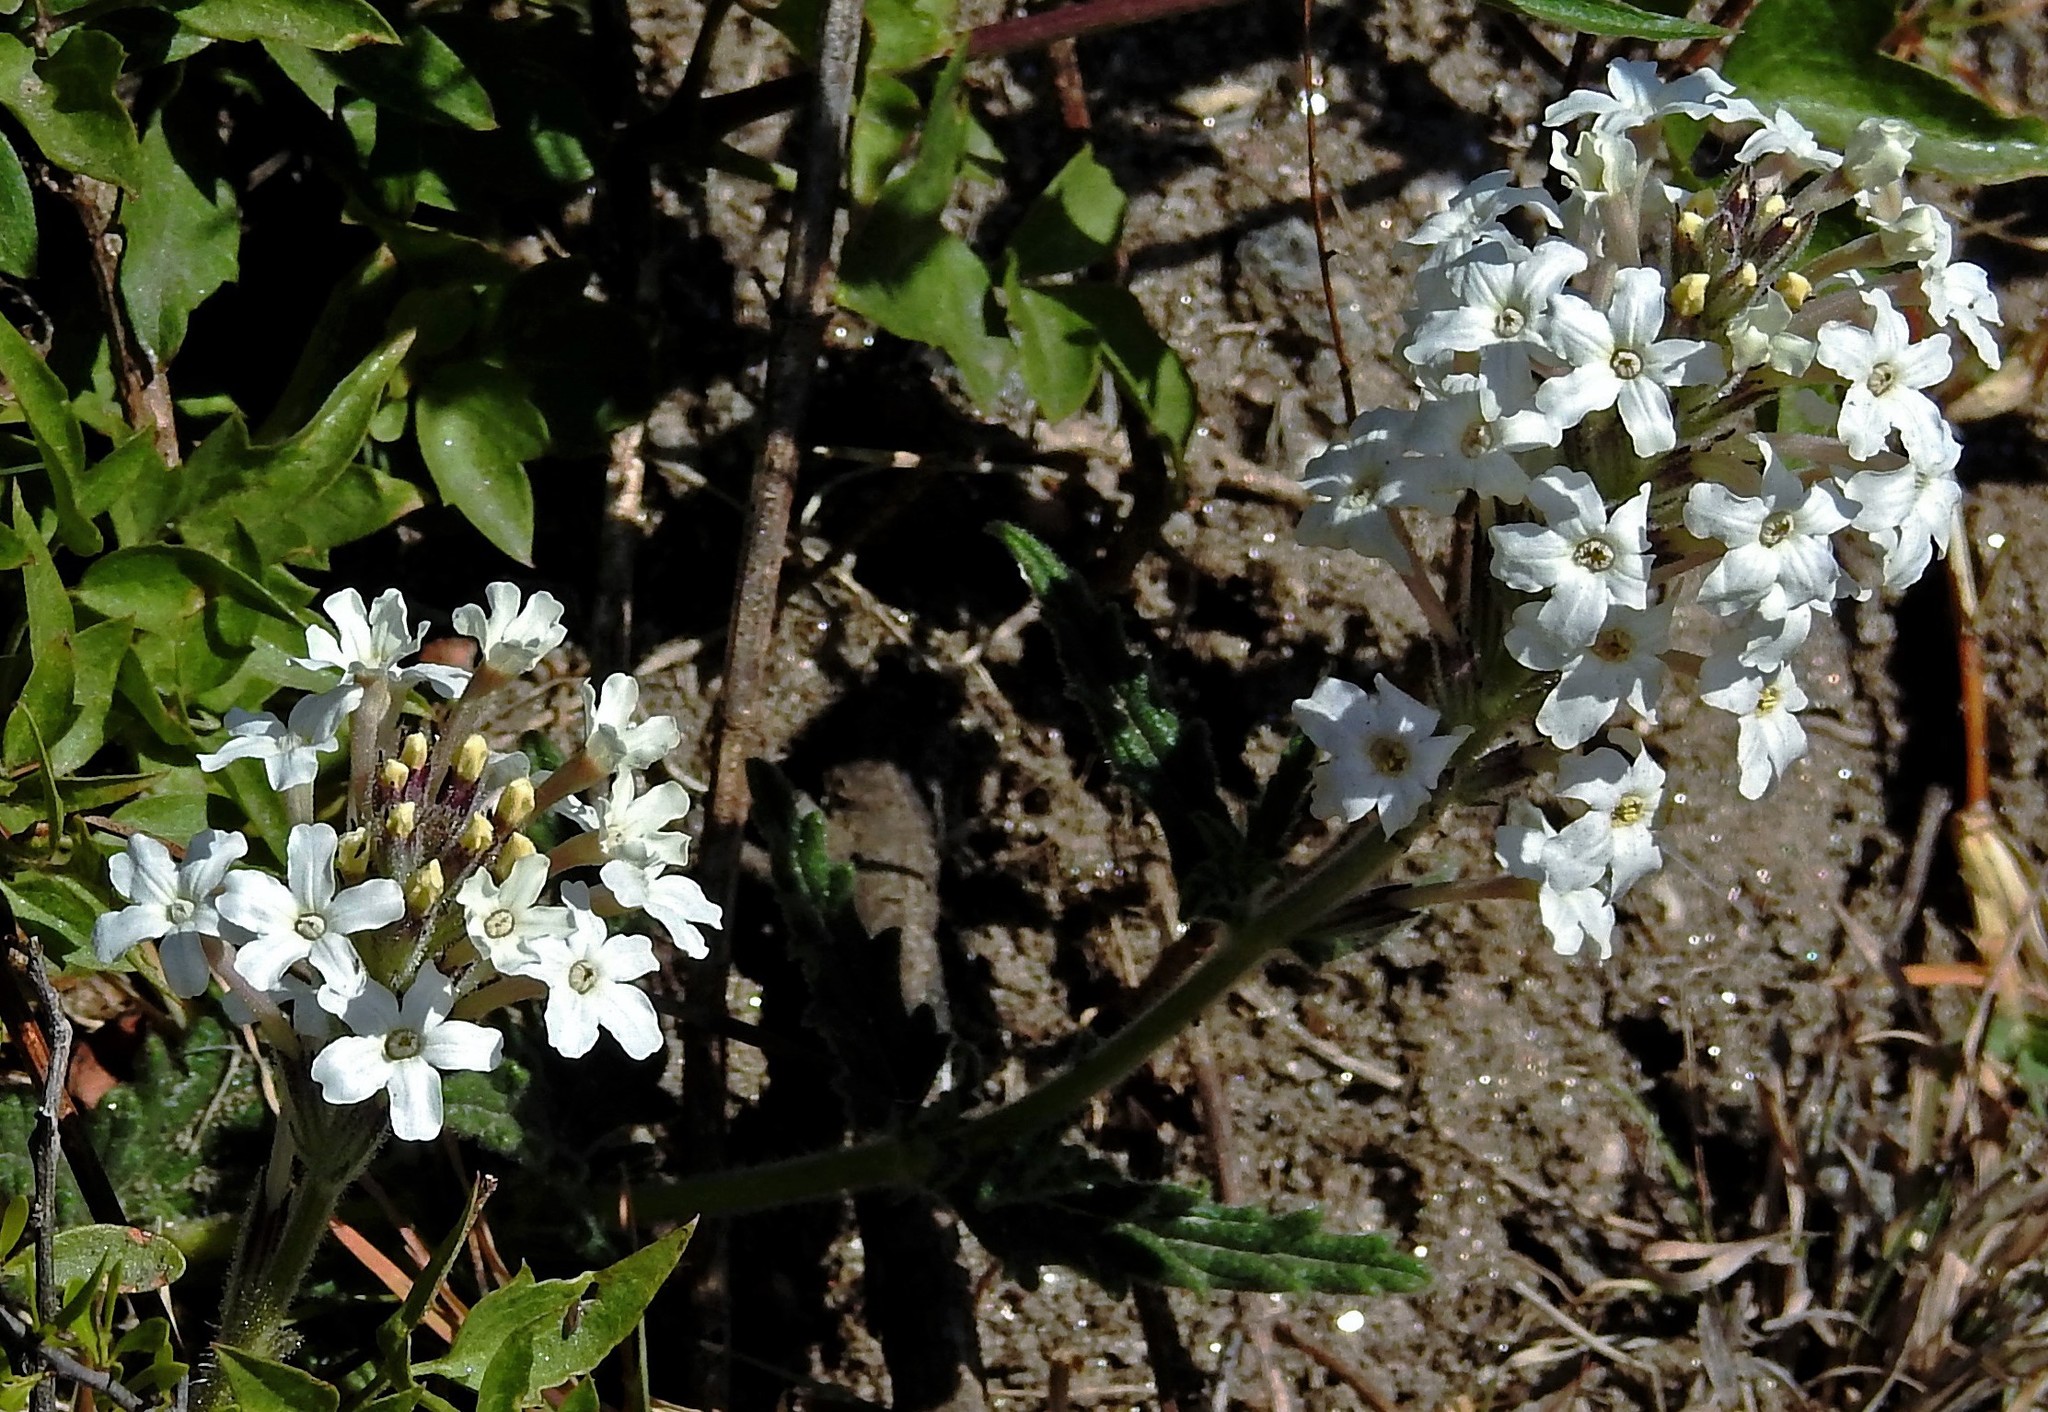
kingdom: Plantae
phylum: Tracheophyta
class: Magnoliopsida
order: Lamiales
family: Verbenaceae
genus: Verbena
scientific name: Verbena platensis
